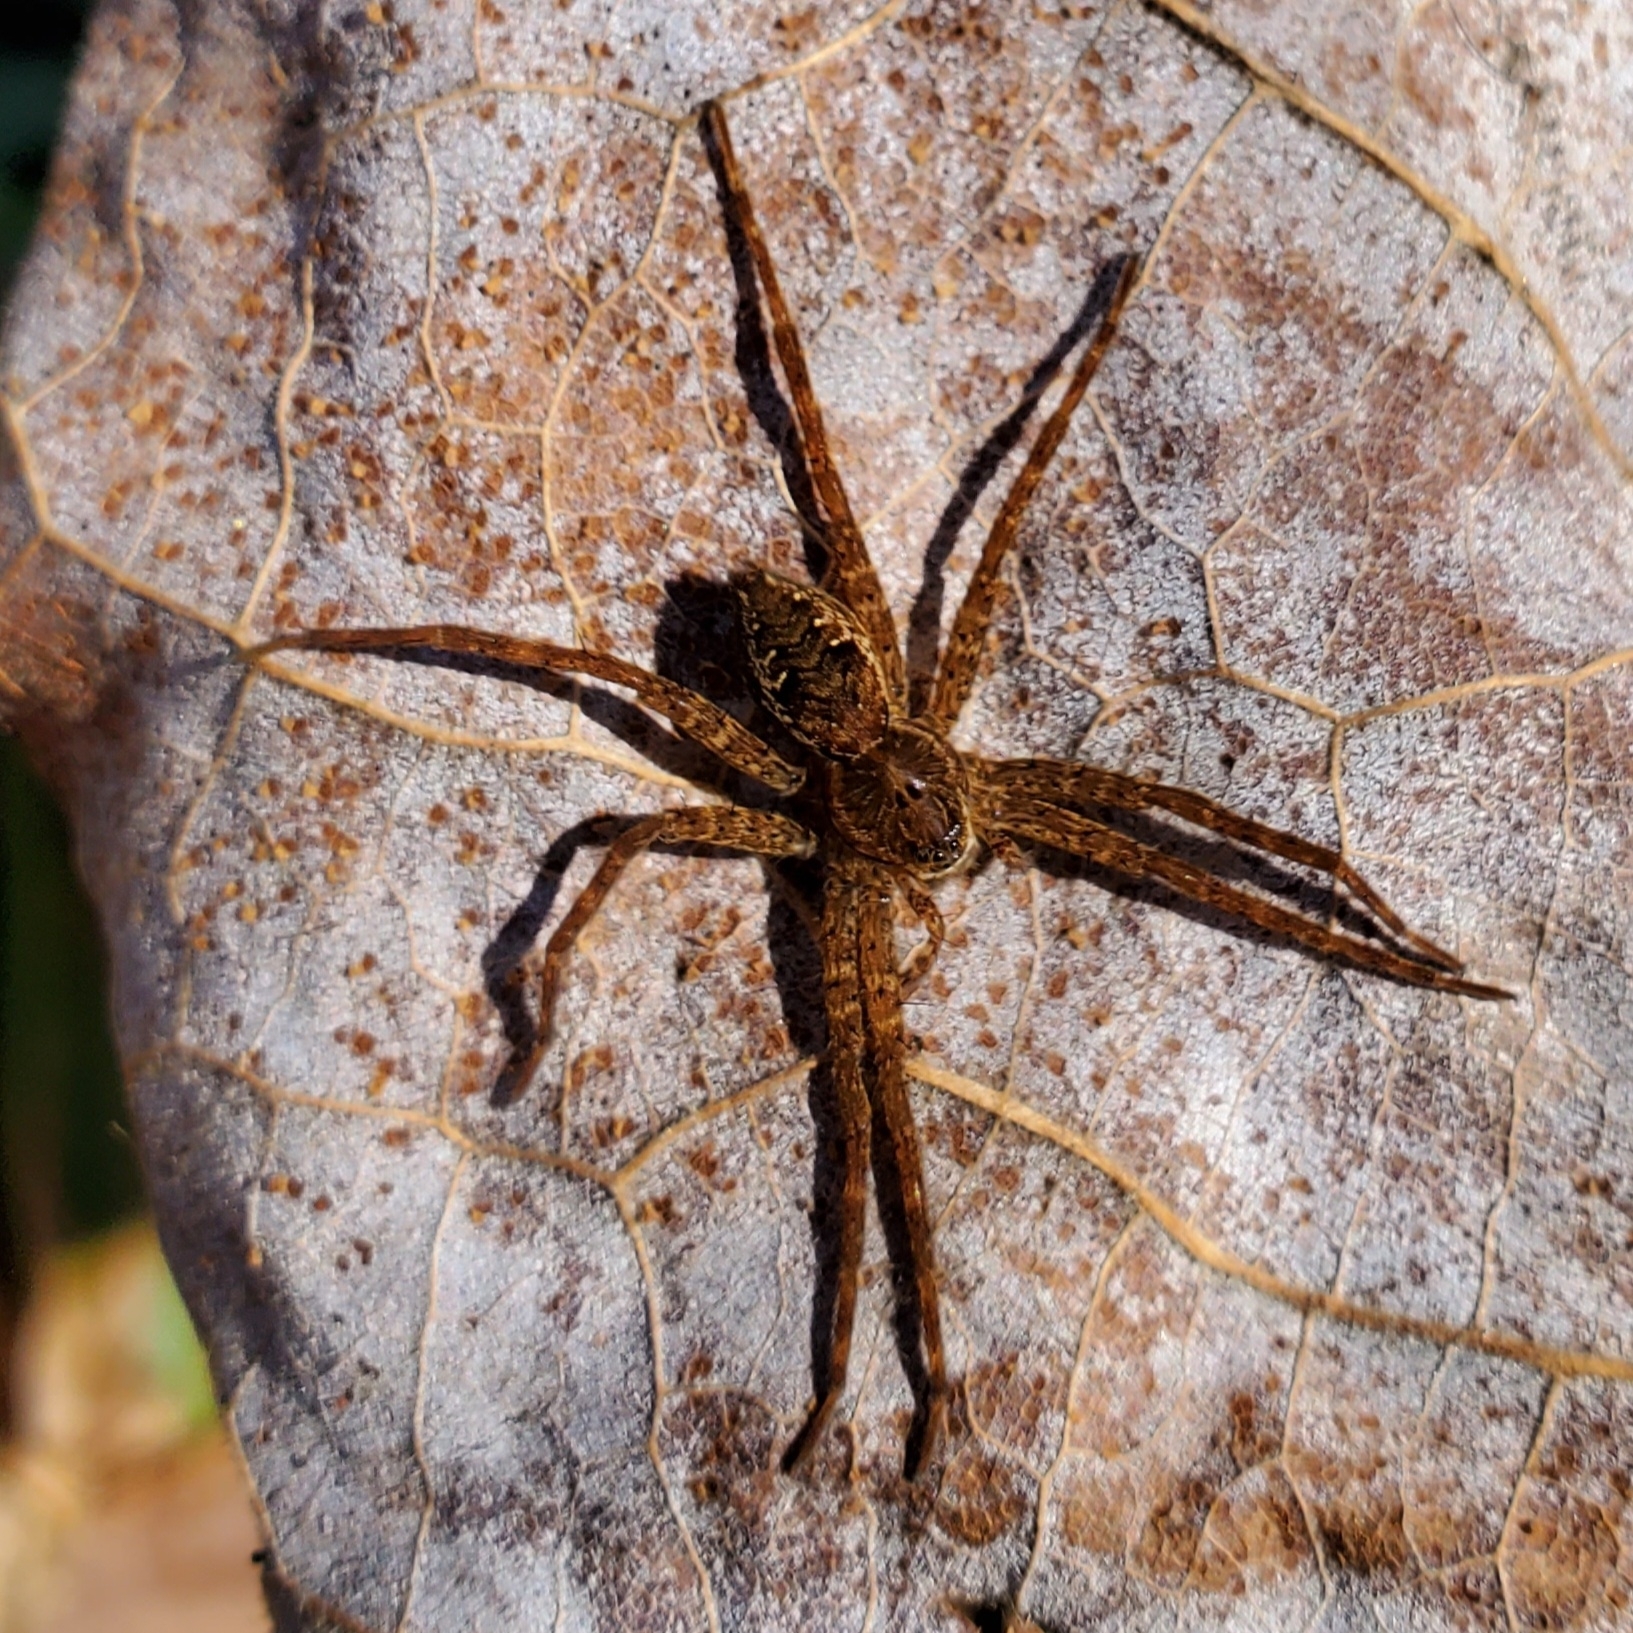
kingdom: Animalia
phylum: Arthropoda
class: Arachnida
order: Araneae
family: Pisauridae
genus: Dolomedes
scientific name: Dolomedes vittatus
